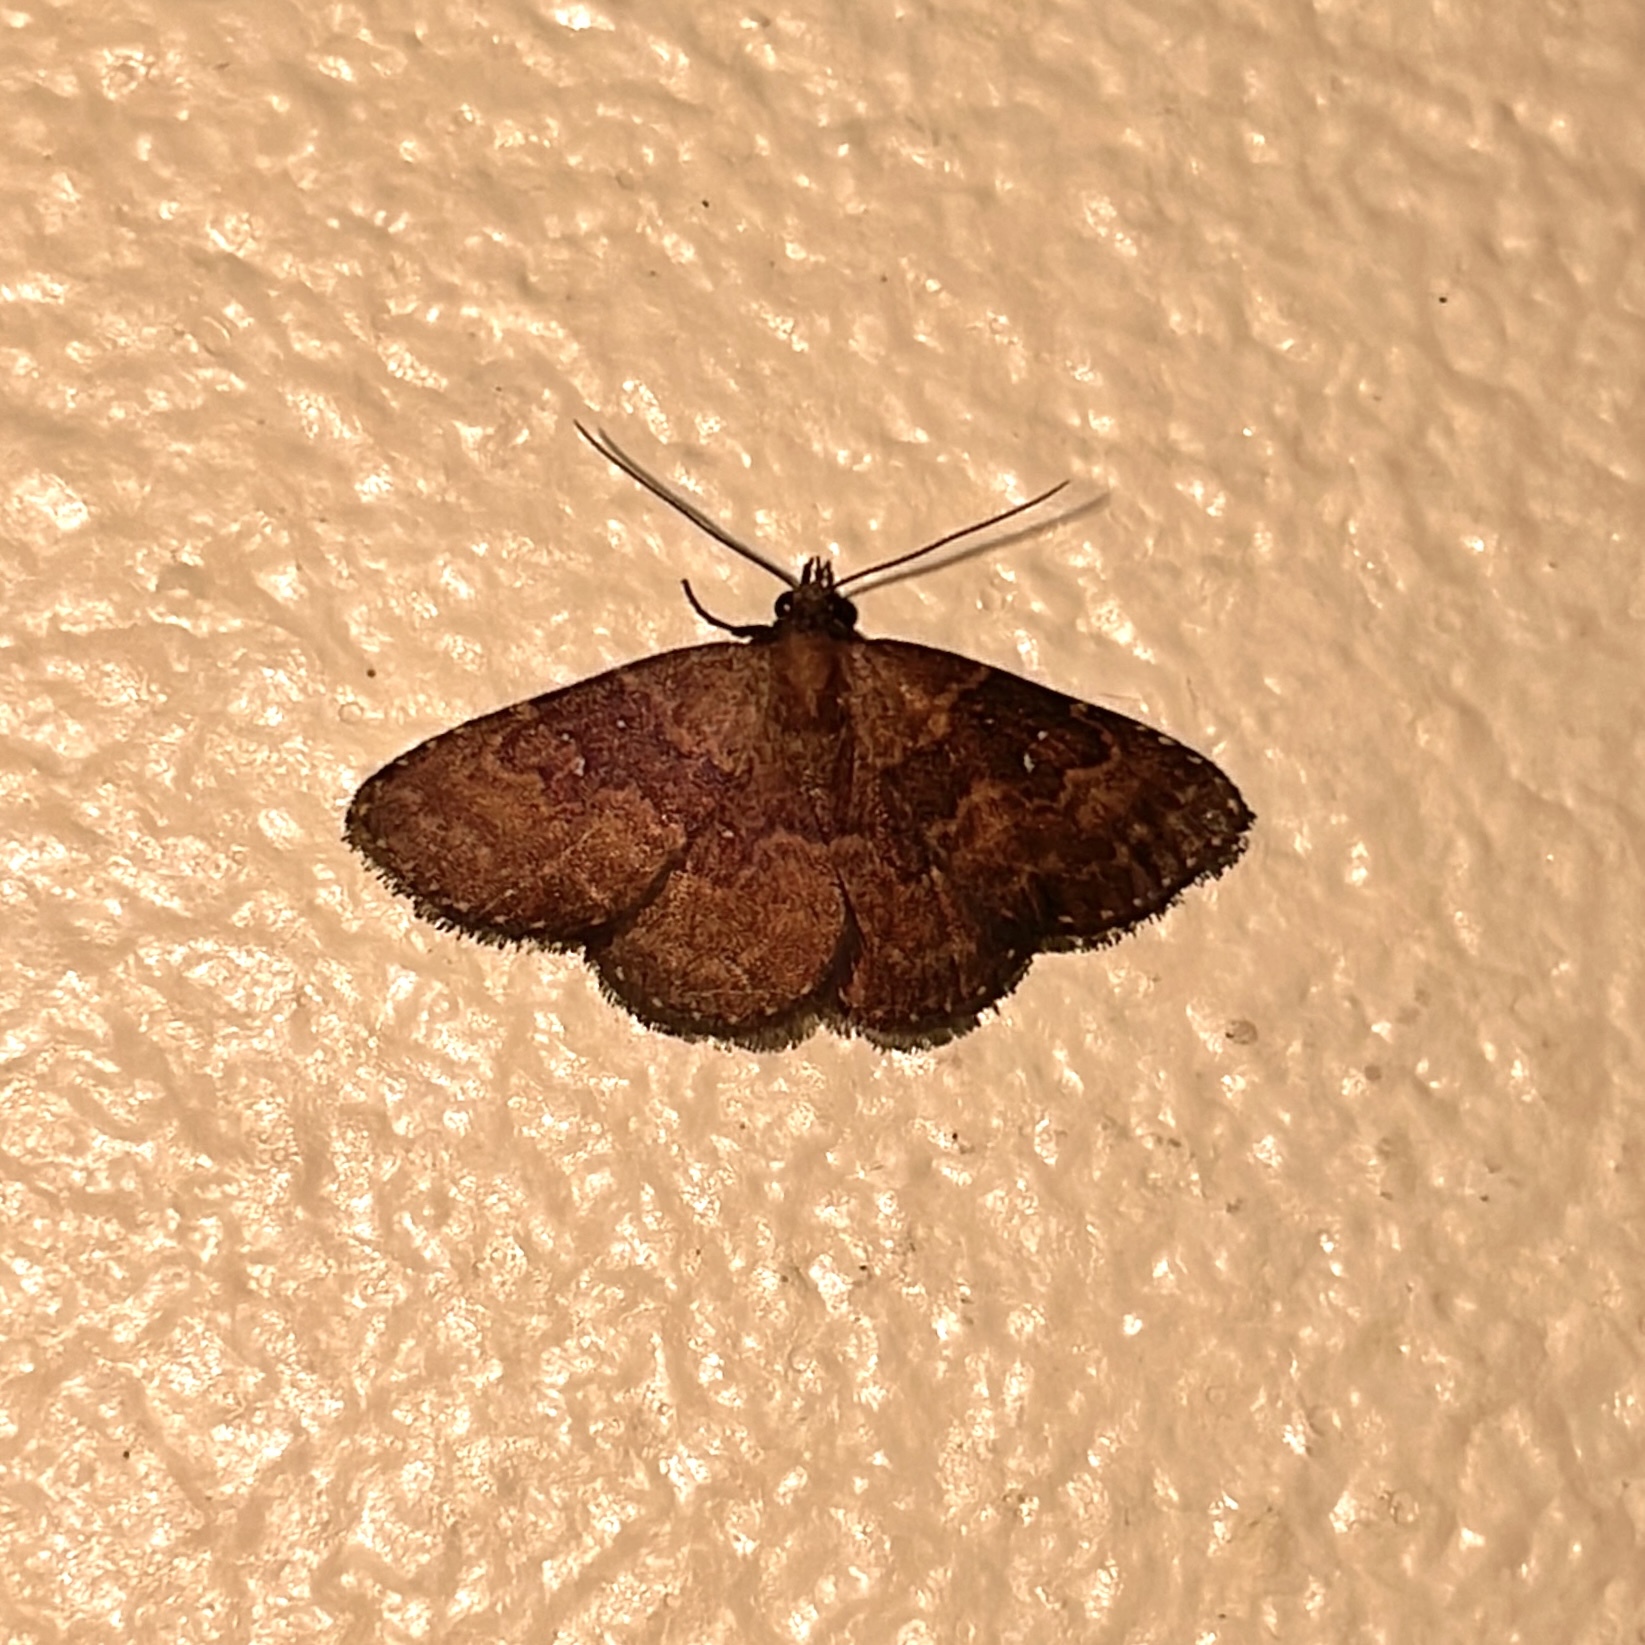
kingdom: Animalia
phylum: Arthropoda
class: Insecta
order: Lepidoptera
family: Erebidae
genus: Ostha
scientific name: Ostha coryphata
